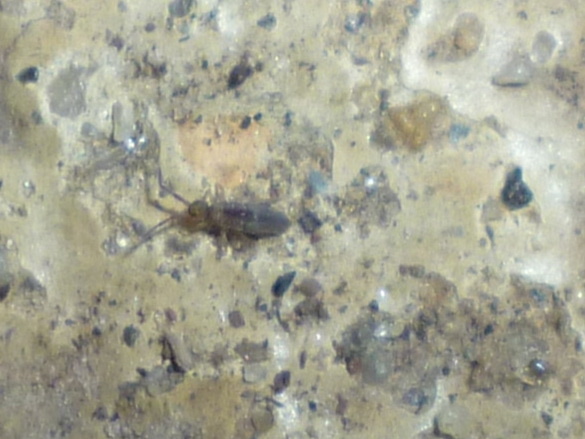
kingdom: Animalia
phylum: Arthropoda
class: Collembola
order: Entomobryomorpha
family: Entomobryidae
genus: Entomobrya
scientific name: Entomobrya unostrigata
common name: Springtail
